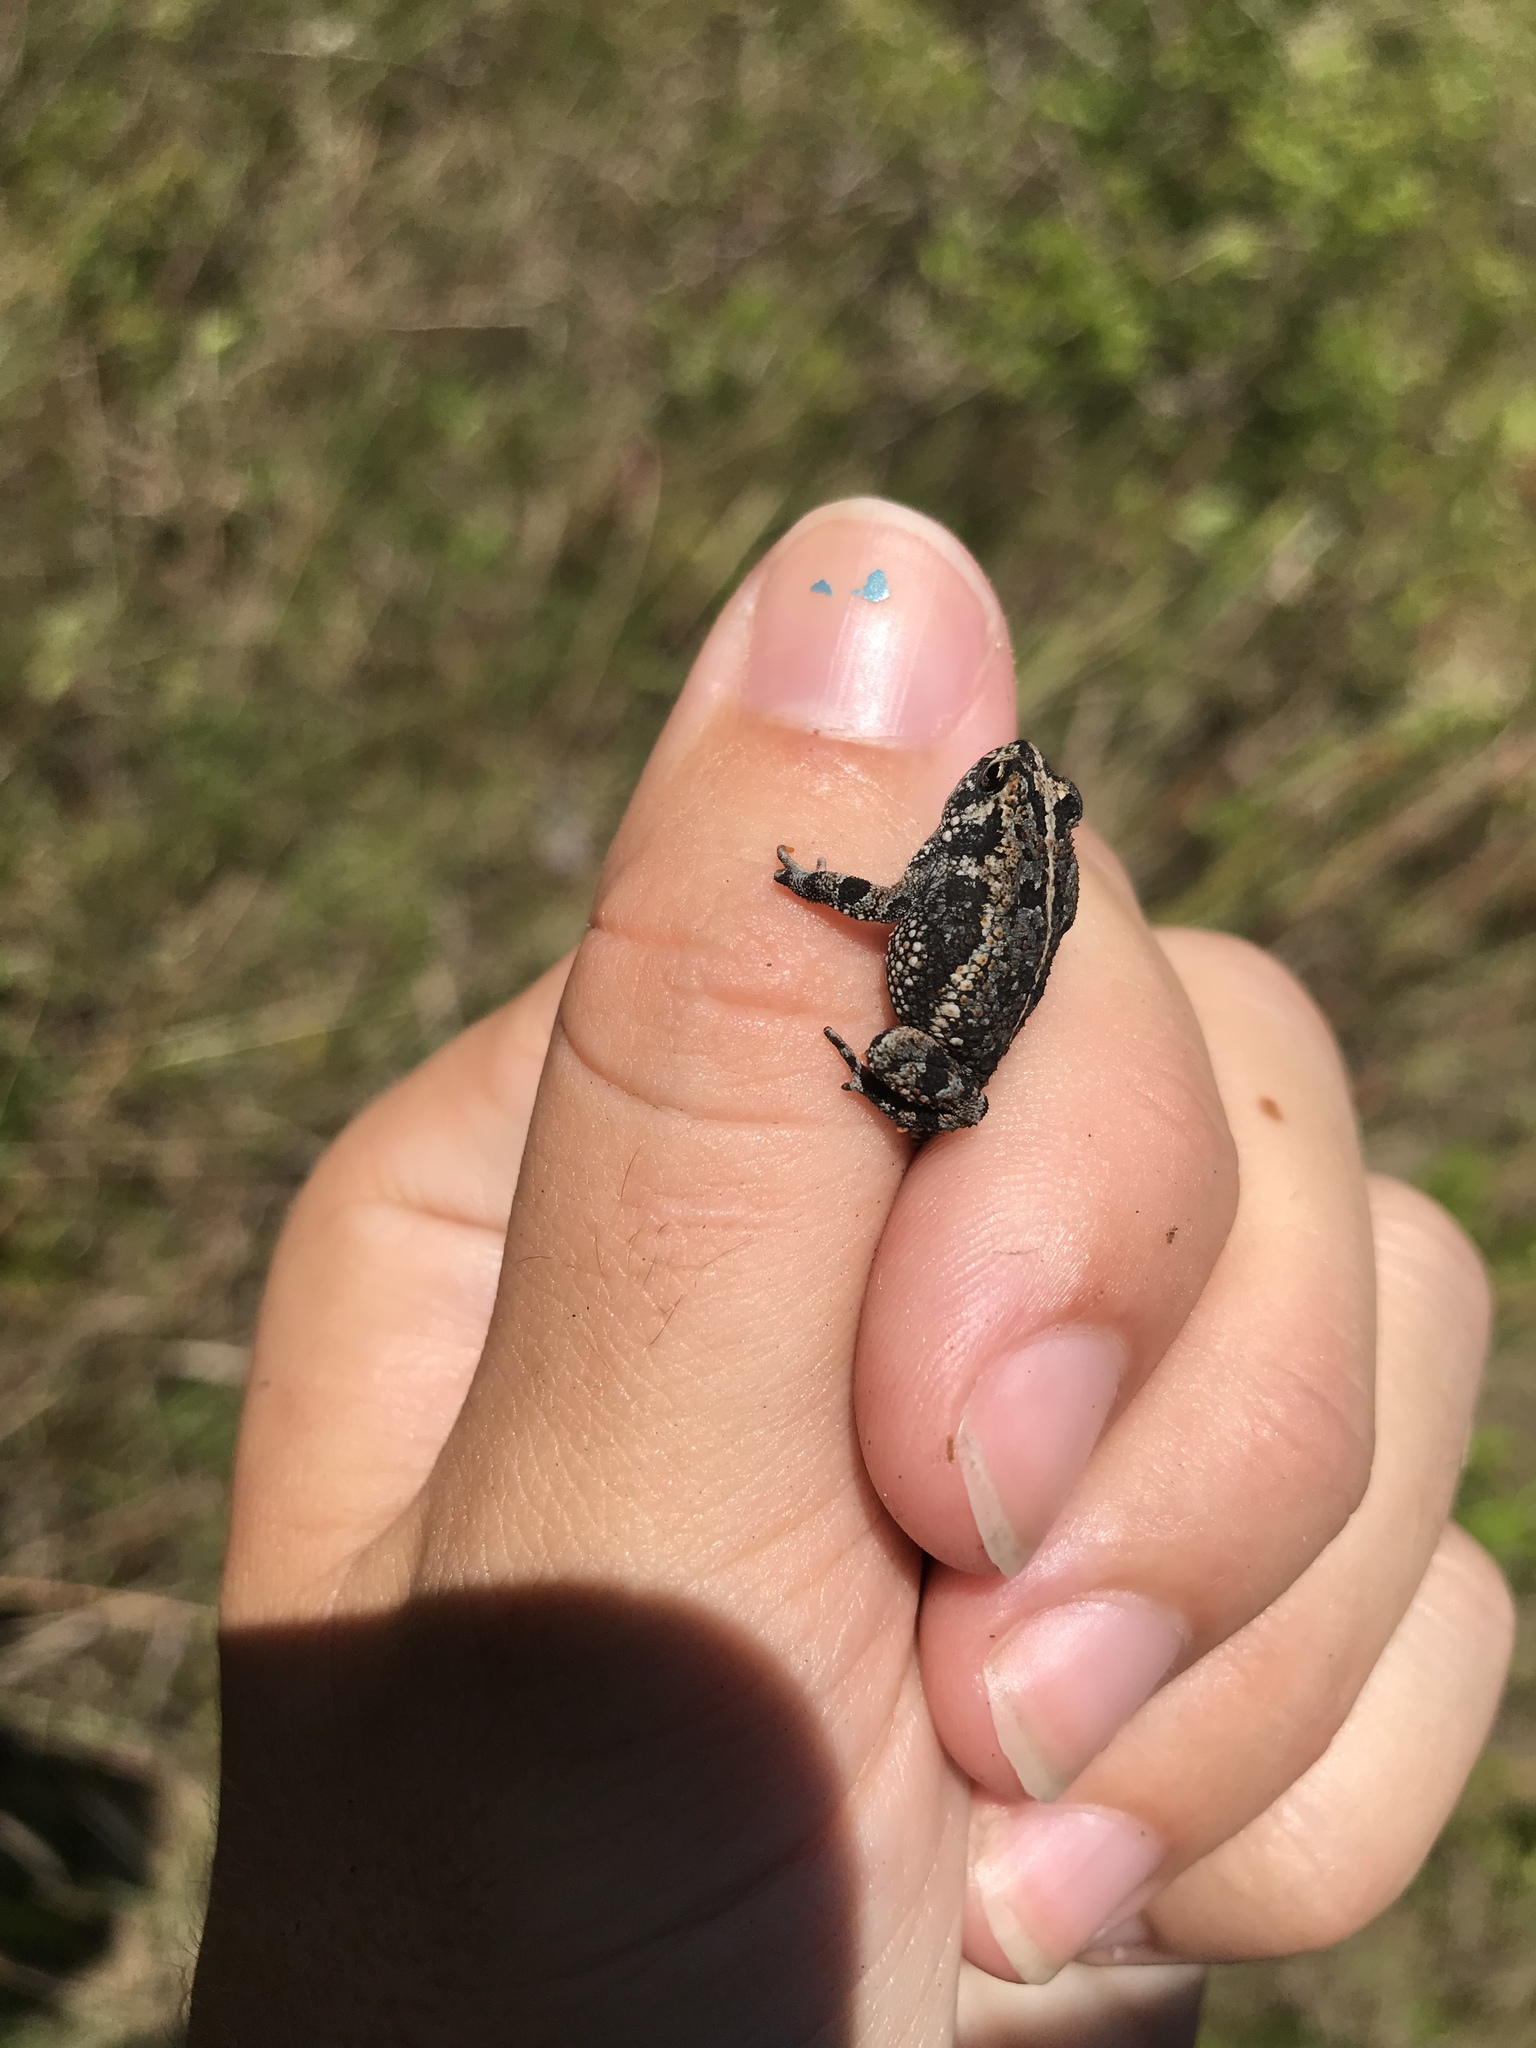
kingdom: Animalia
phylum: Chordata
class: Amphibia
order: Anura
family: Bufonidae
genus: Anaxyrus
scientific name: Anaxyrus quercicus
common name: Oak toad
